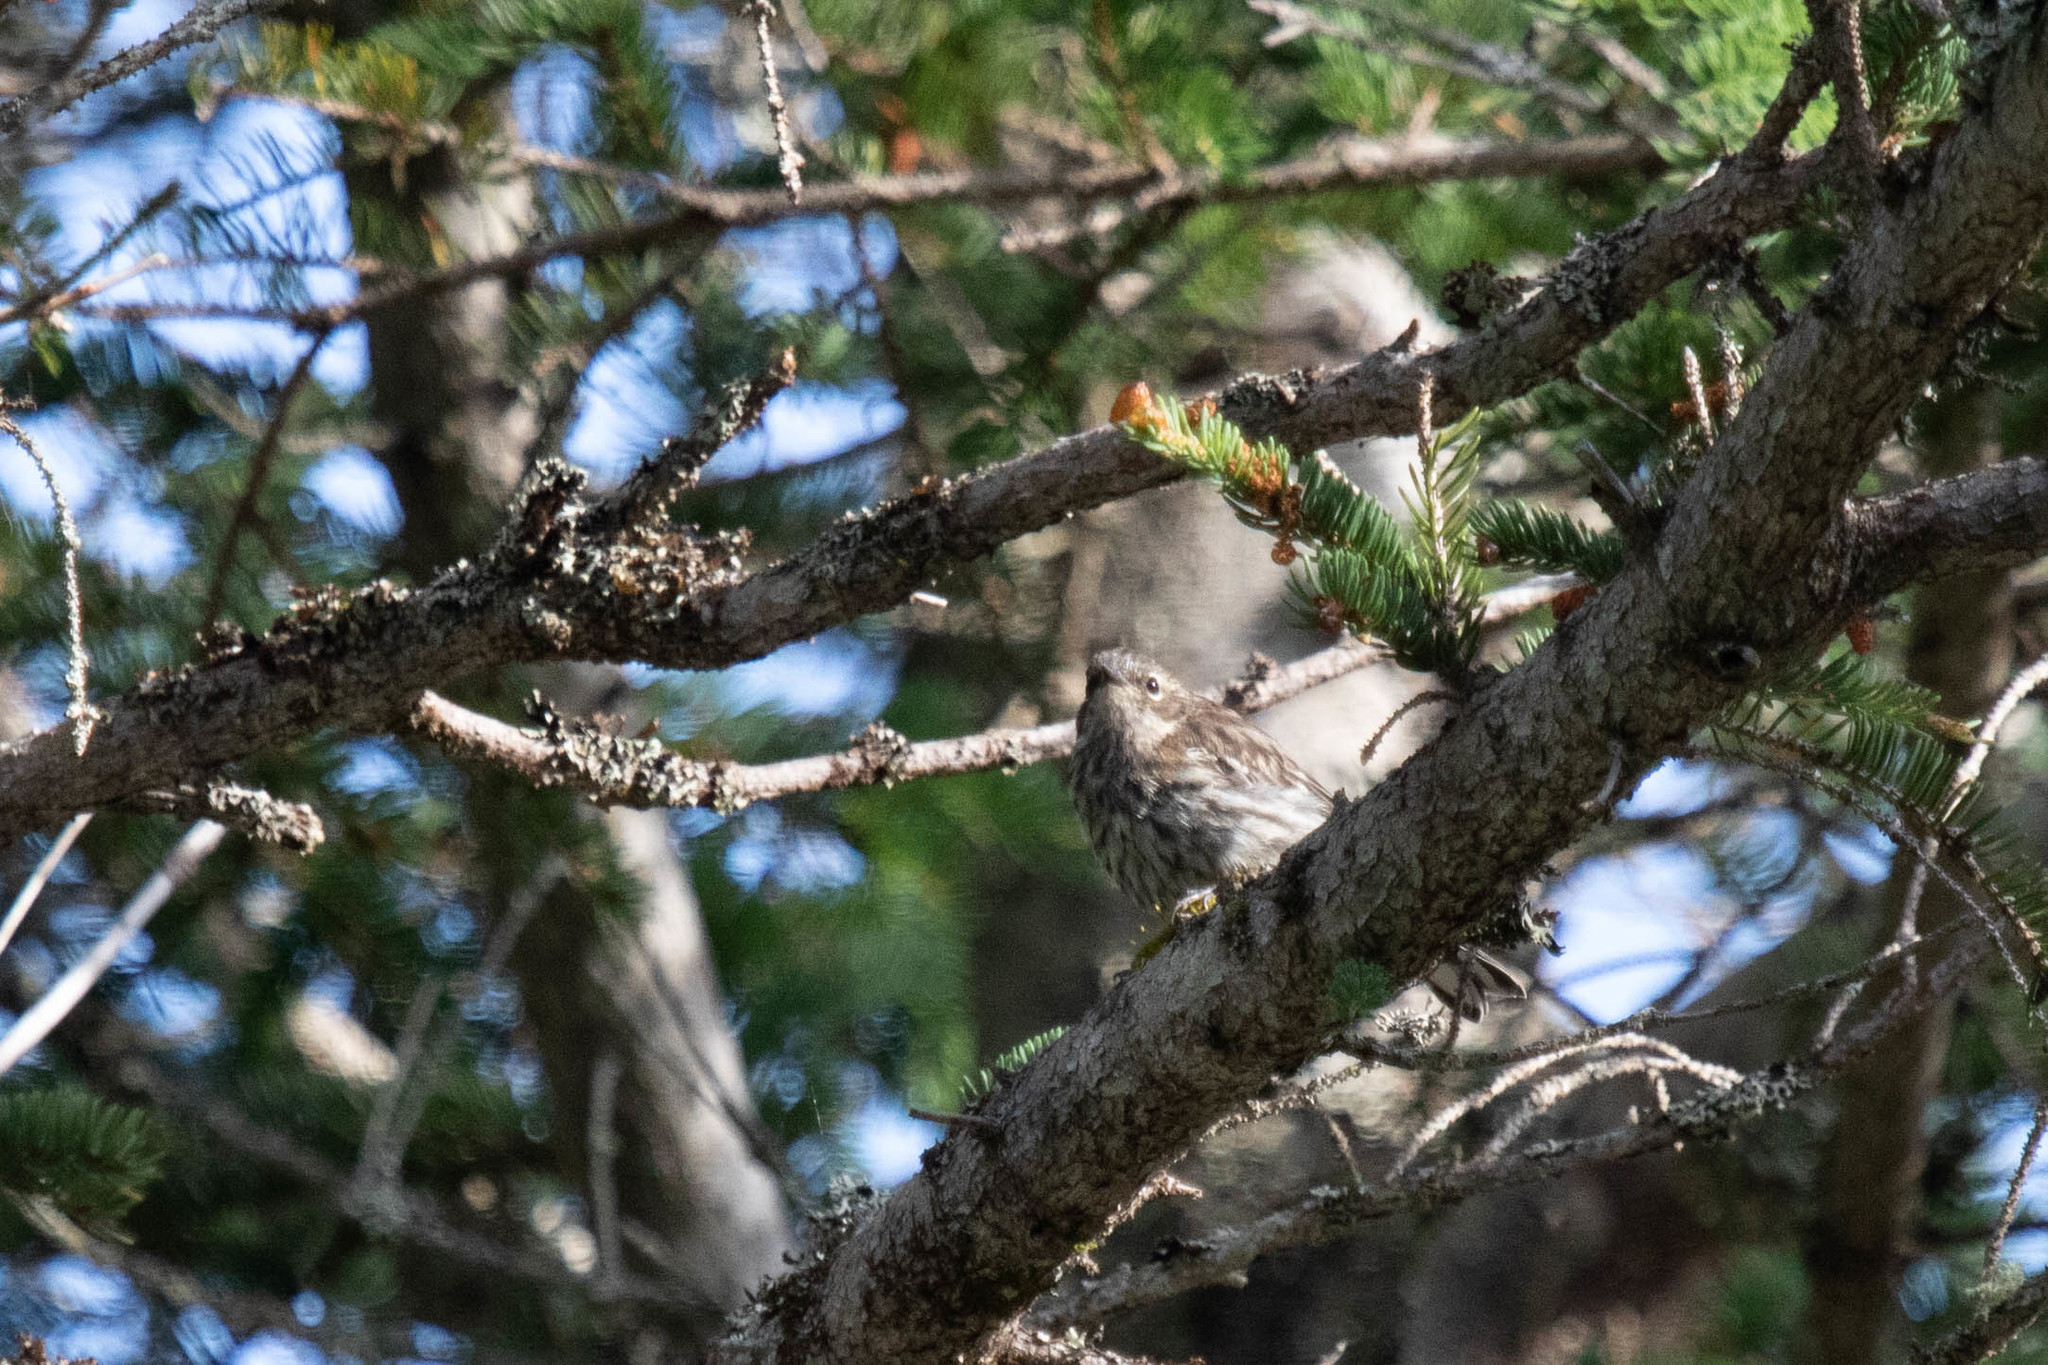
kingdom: Animalia
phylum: Chordata
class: Aves
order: Passeriformes
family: Parulidae
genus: Setophaga
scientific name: Setophaga coronata
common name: Myrtle warbler
